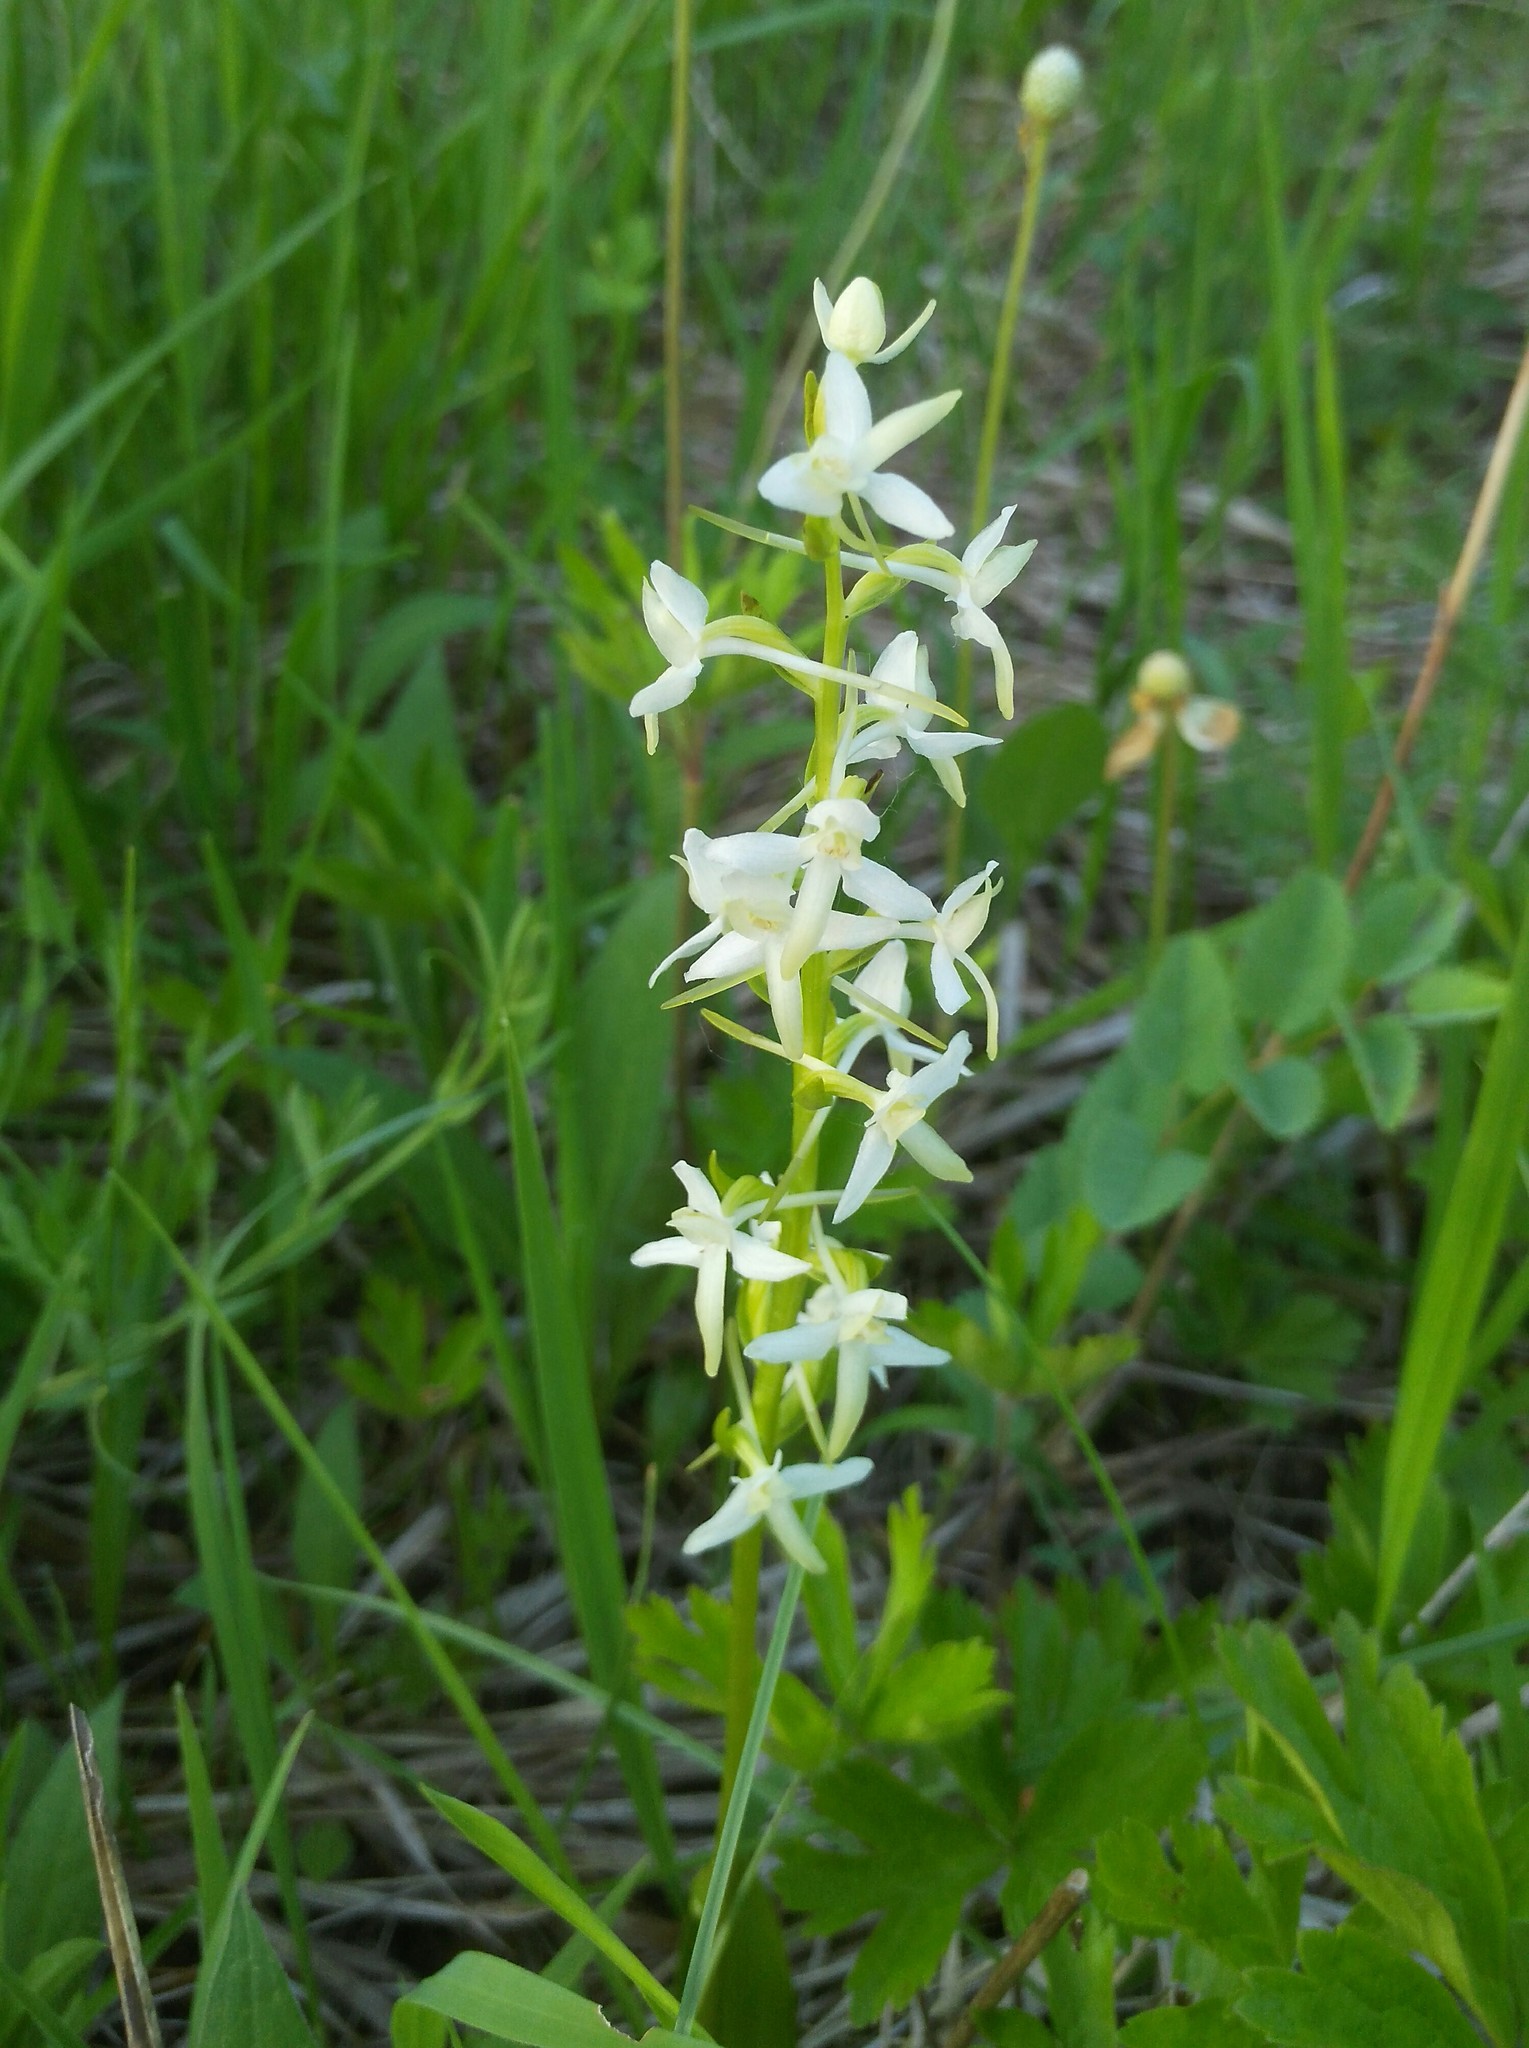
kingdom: Plantae
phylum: Tracheophyta
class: Liliopsida
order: Asparagales
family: Orchidaceae
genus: Platanthera
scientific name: Platanthera bifolia
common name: Lesser butterfly-orchid
